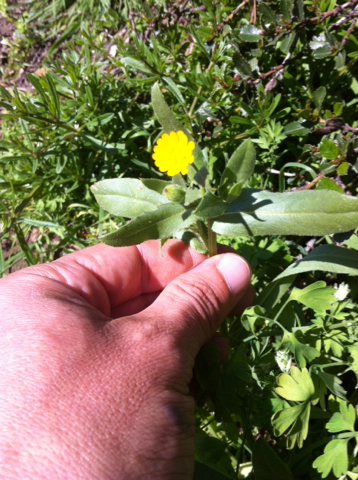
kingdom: Plantae
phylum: Tracheophyta
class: Magnoliopsida
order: Asterales
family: Asteraceae
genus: Calendula
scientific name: Calendula arvensis
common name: Field marigold
